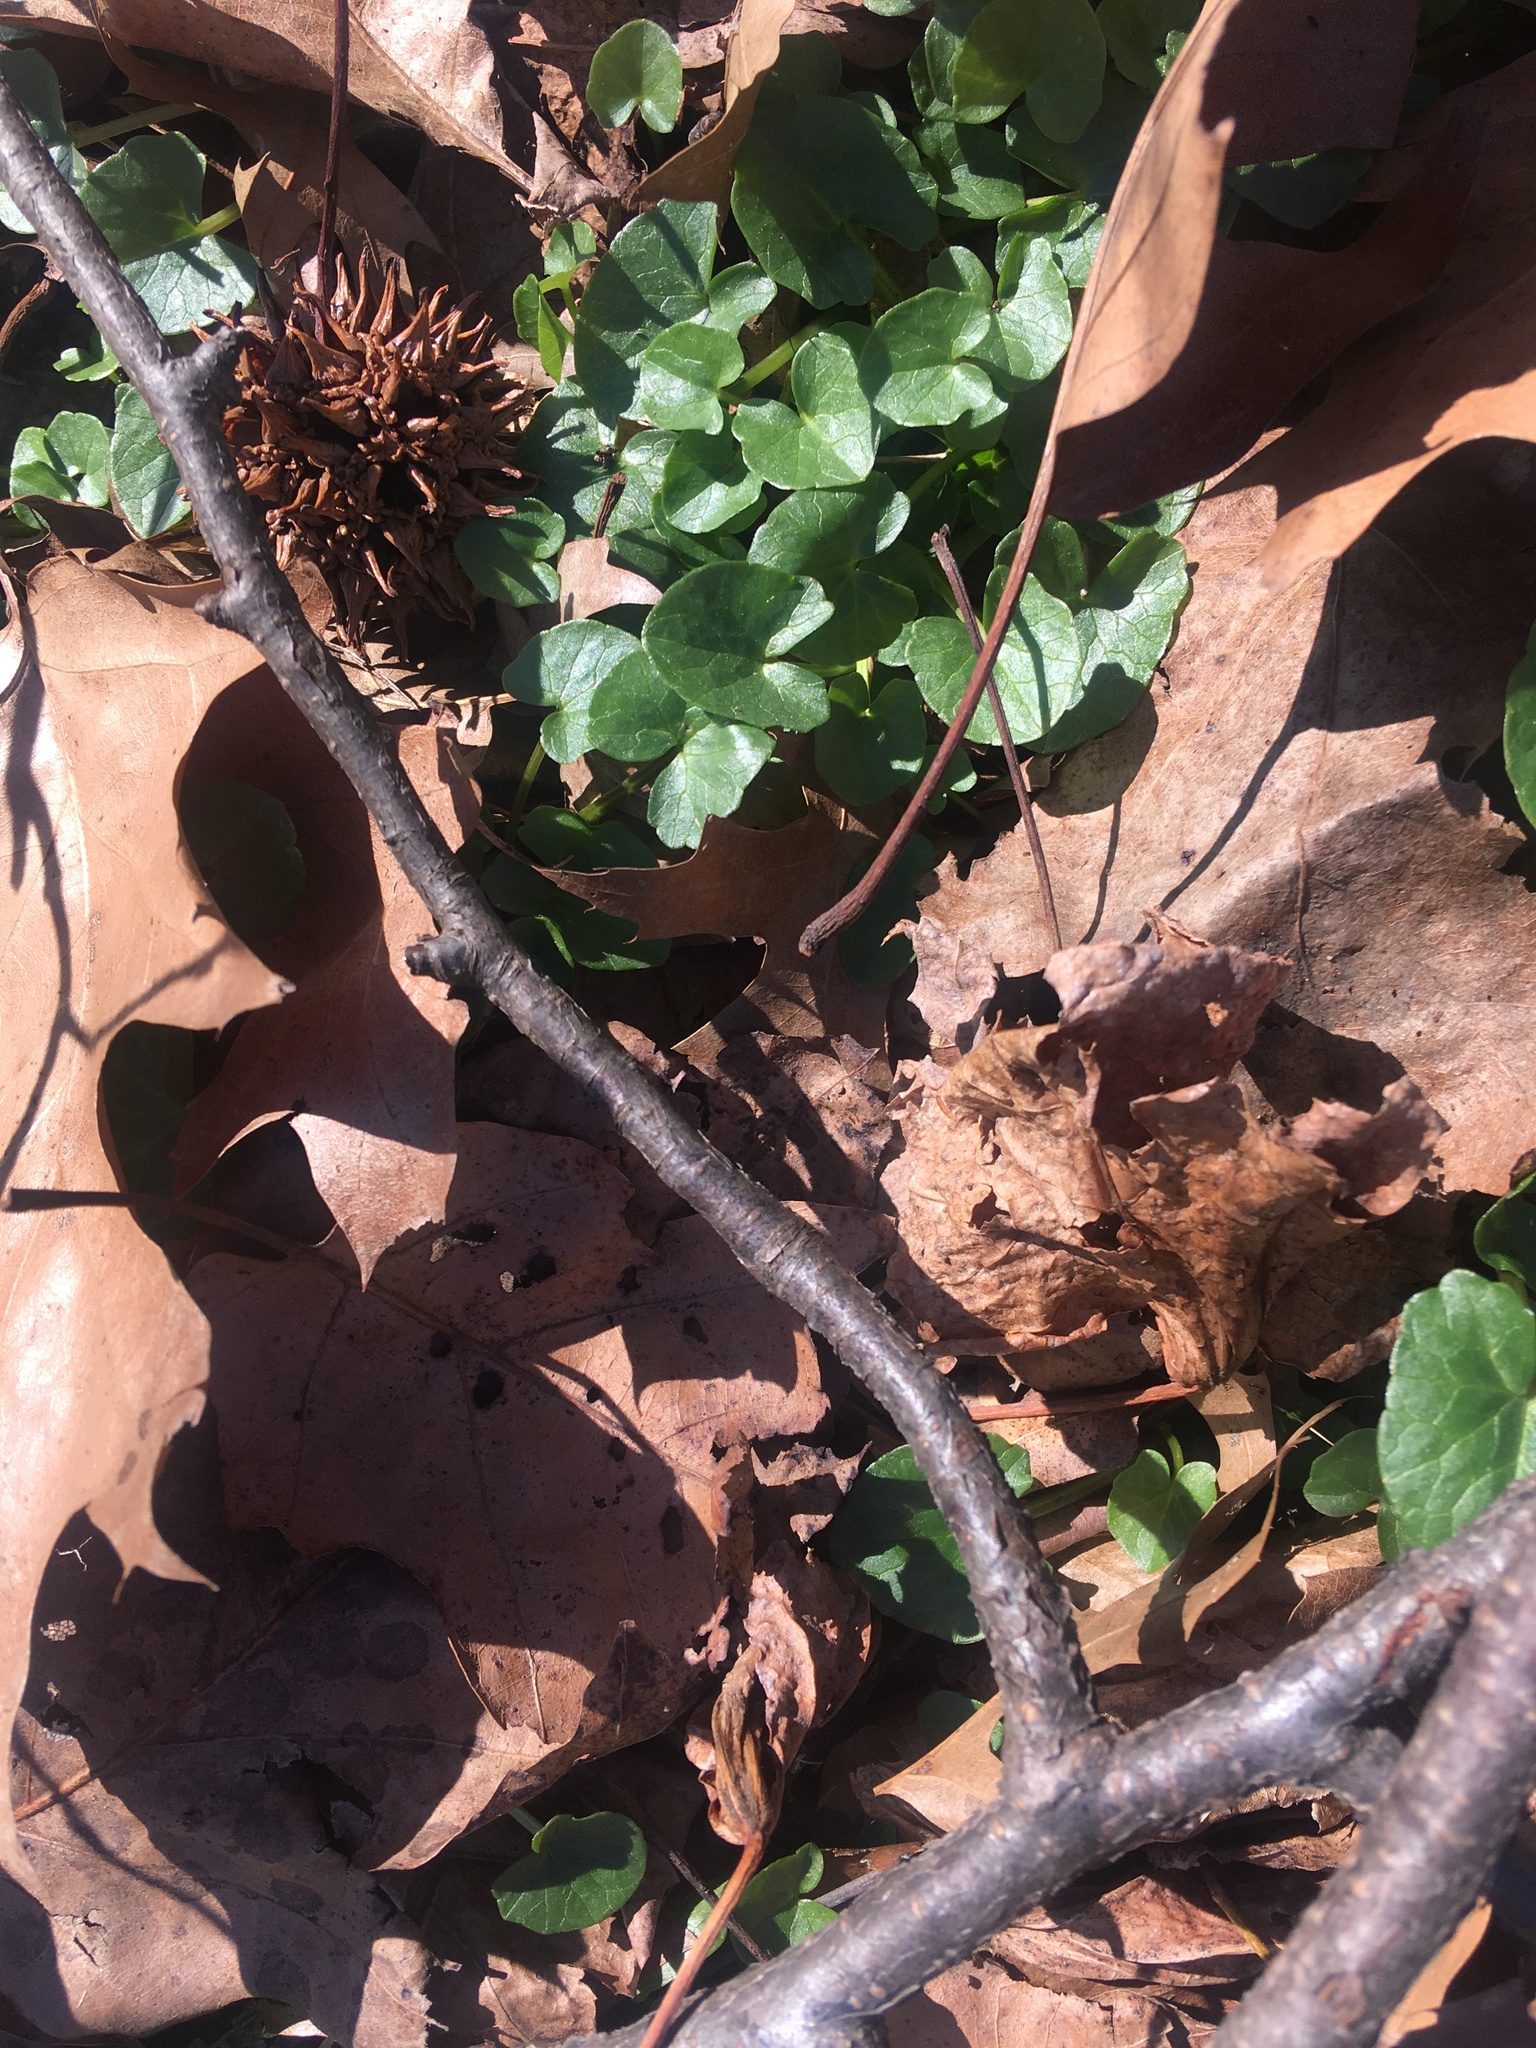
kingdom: Plantae
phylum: Tracheophyta
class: Magnoliopsida
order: Ranunculales
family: Ranunculaceae
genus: Ficaria
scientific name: Ficaria verna
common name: Lesser celandine
